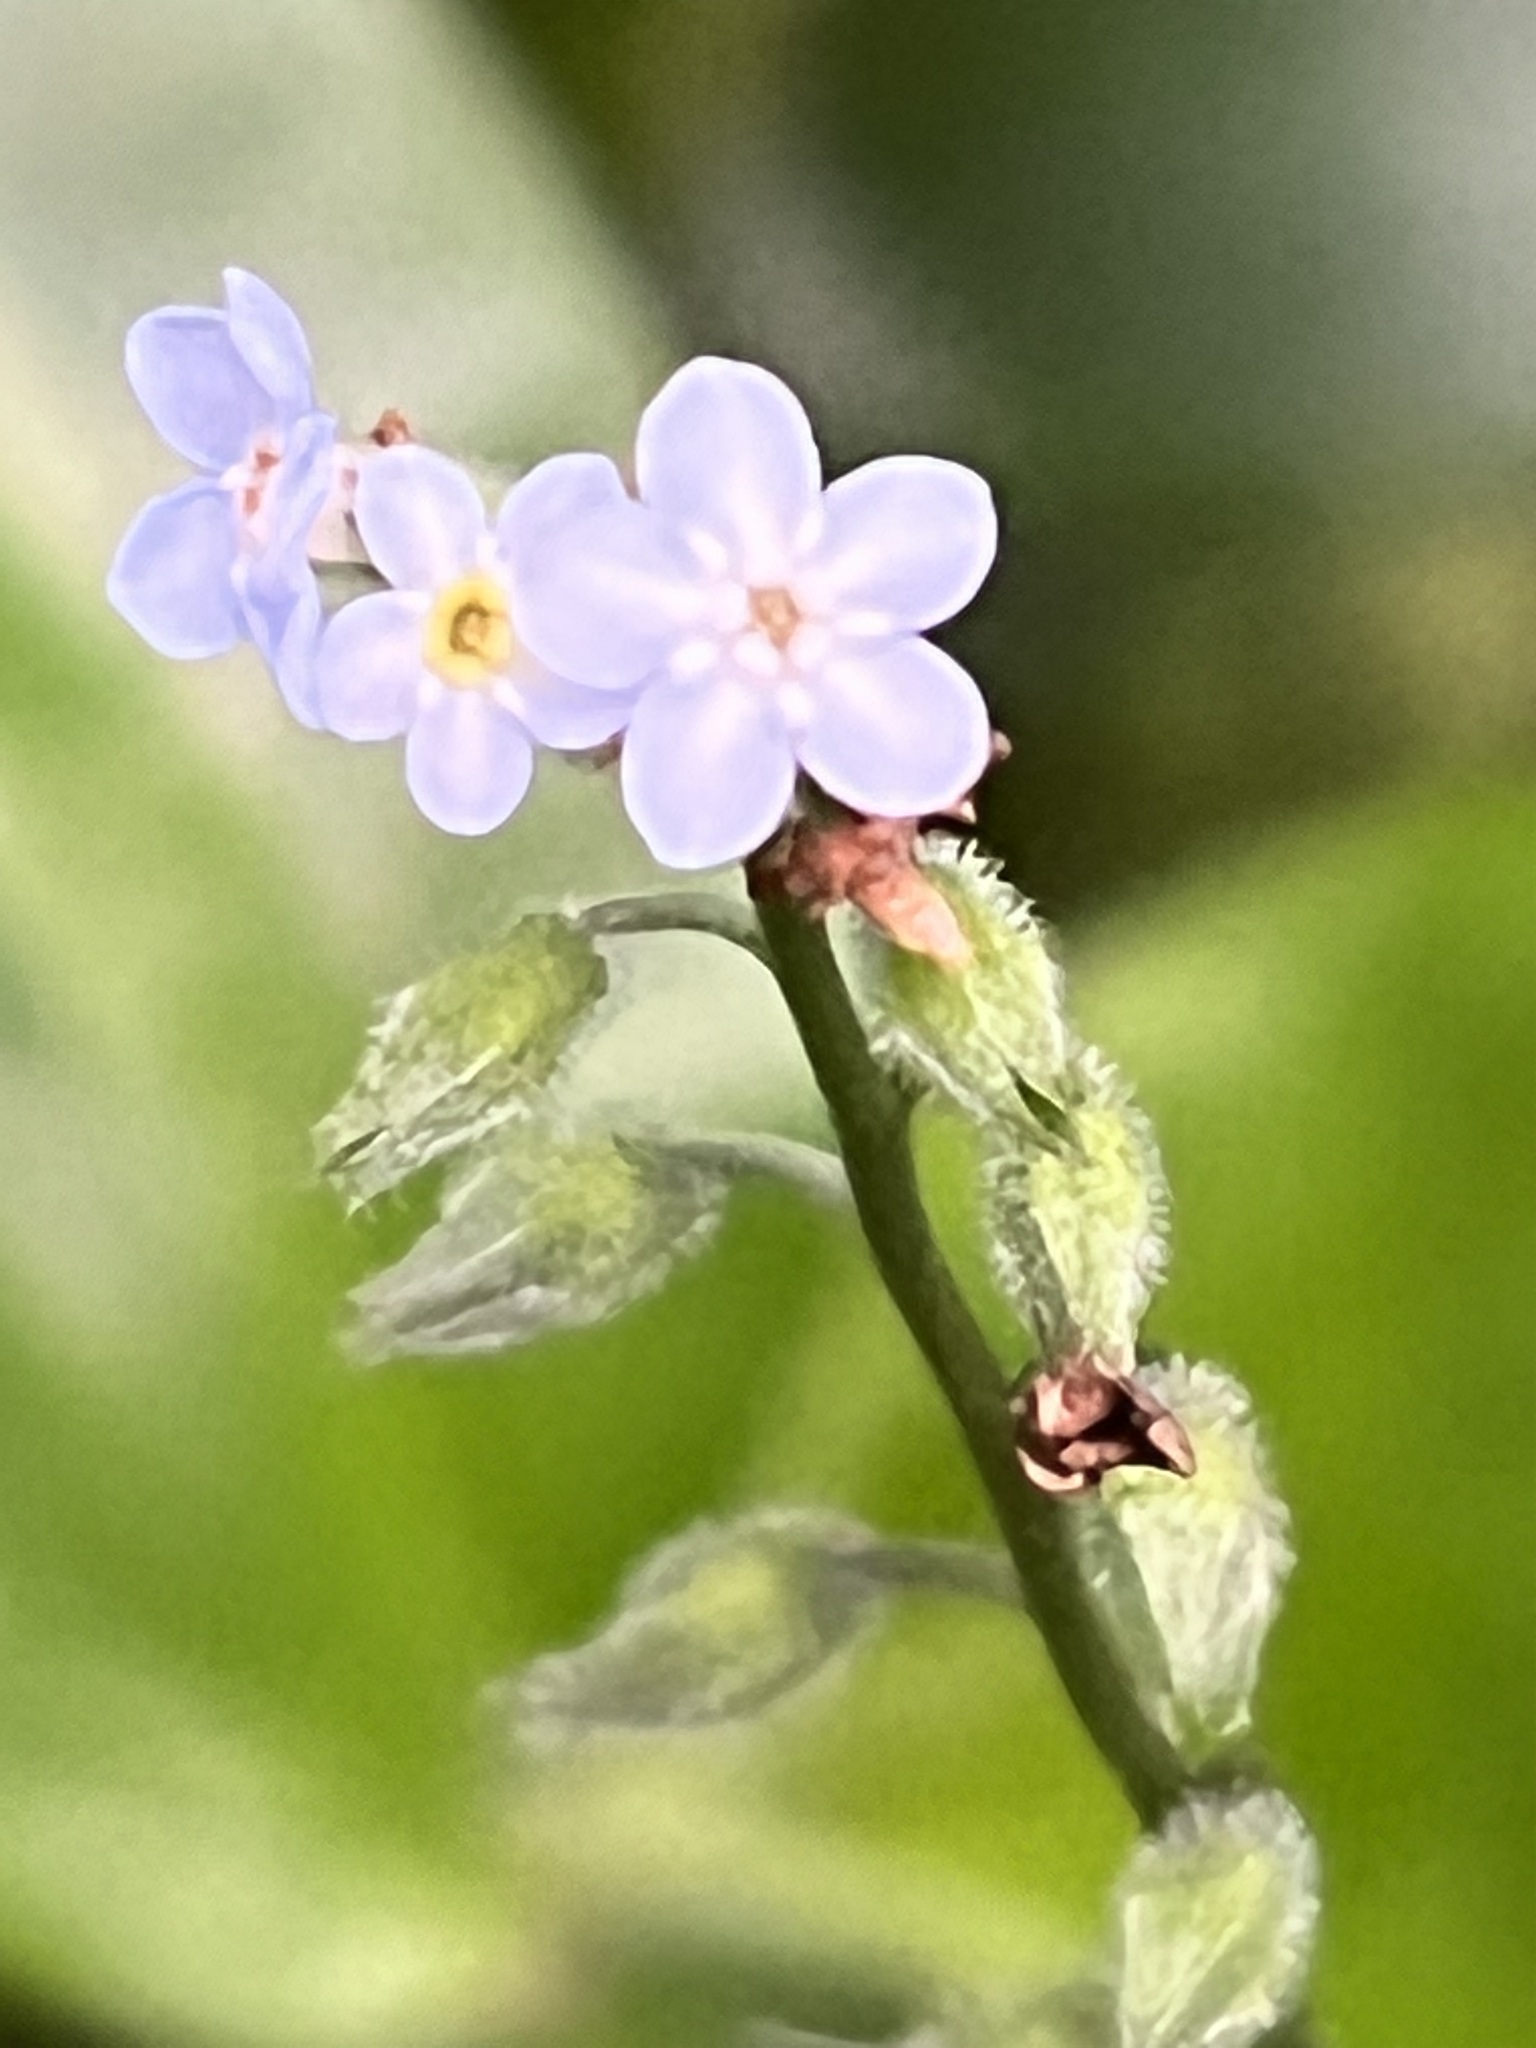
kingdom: Plantae
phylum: Tracheophyta
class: Magnoliopsida
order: Boraginales
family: Boraginaceae
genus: Myosotis
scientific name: Myosotis latifolia
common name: Broadleaf forget-me-not
